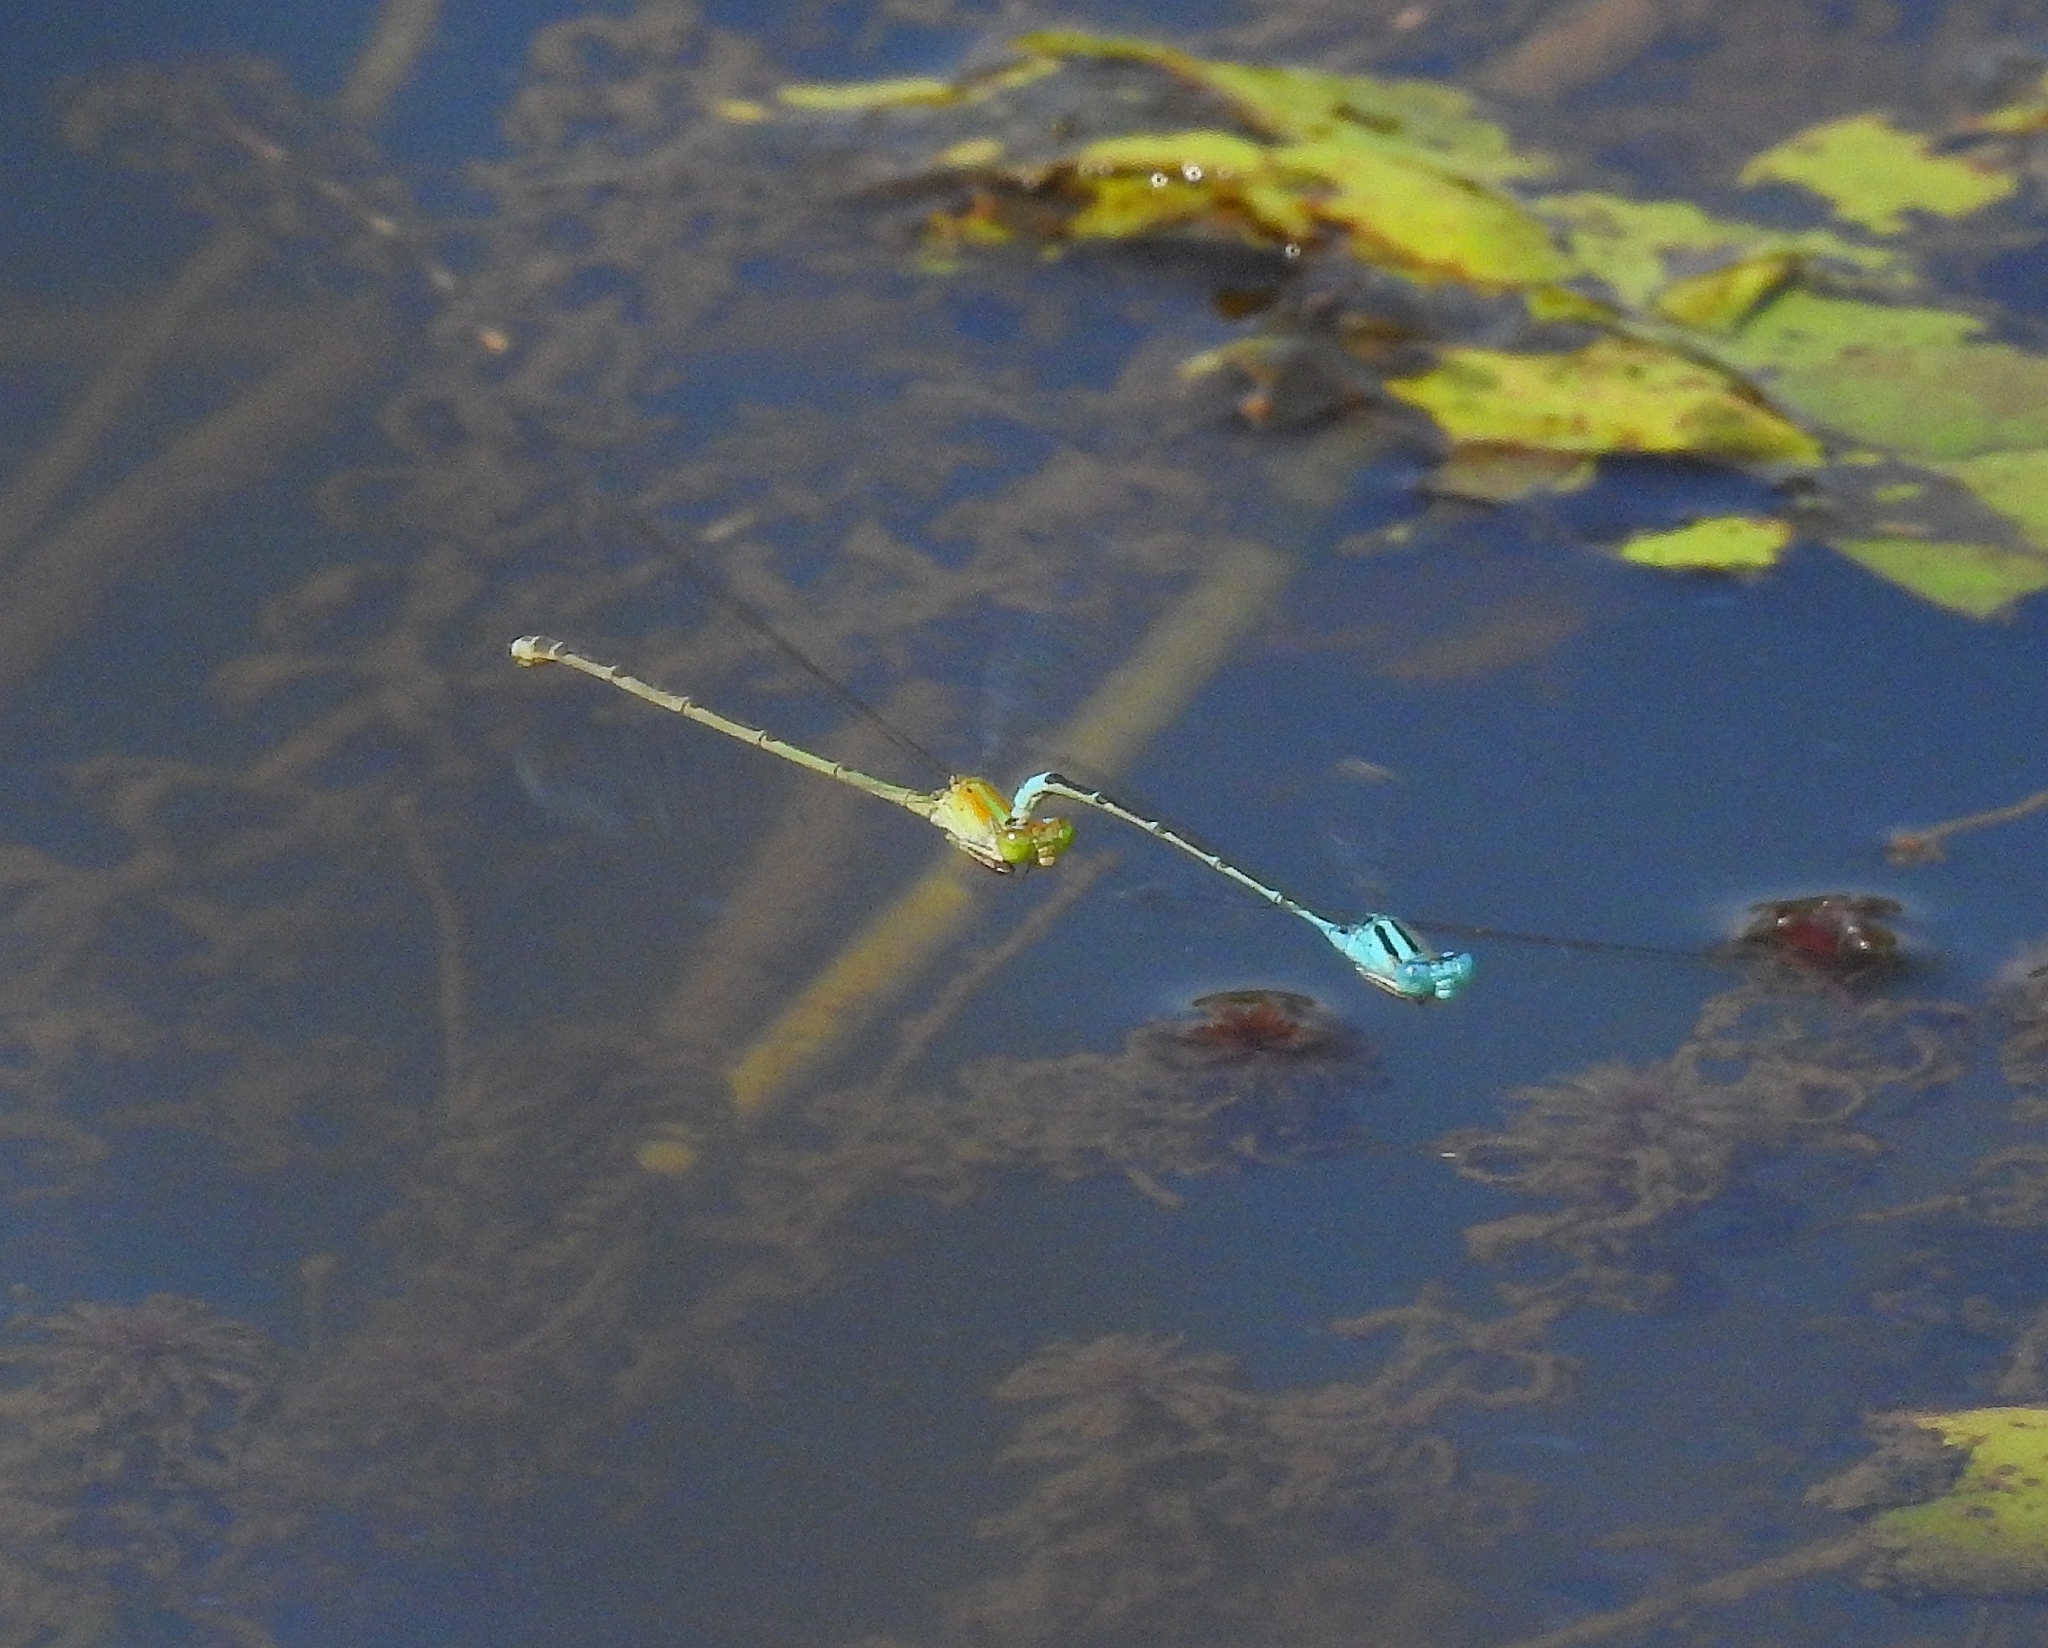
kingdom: Animalia
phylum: Arthropoda
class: Insecta
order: Odonata
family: Coenagrionidae
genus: Pseudagrion
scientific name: Pseudagrion microcephalum
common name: Blue riverdamsel
